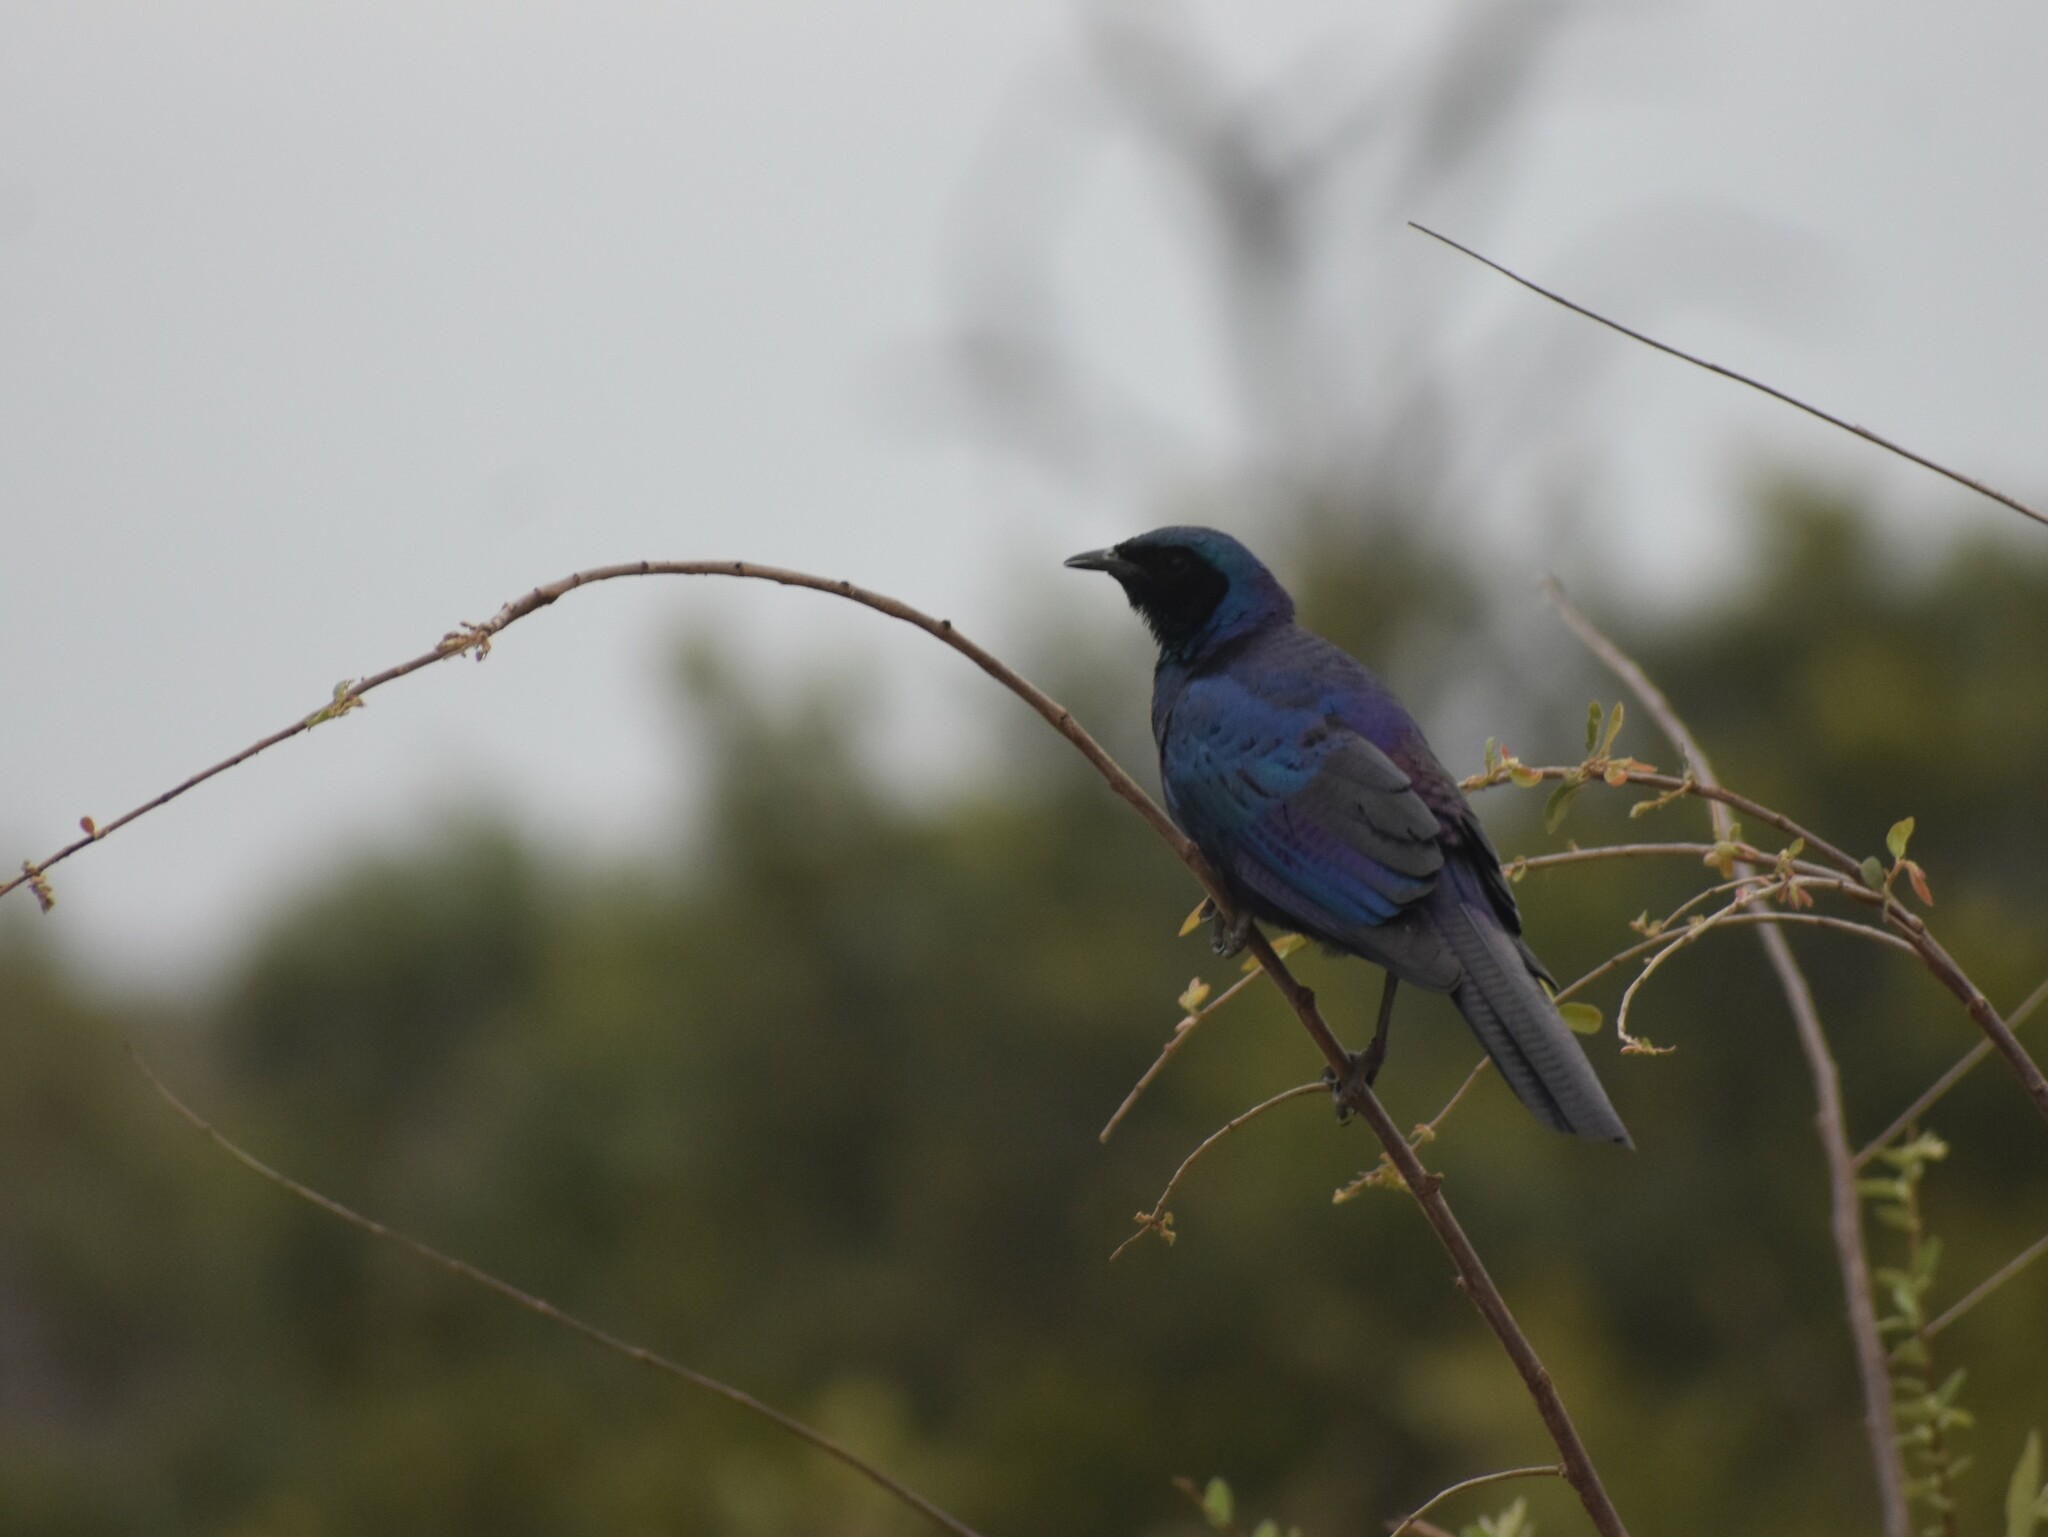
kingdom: Animalia
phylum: Chordata
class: Aves
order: Passeriformes
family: Sturnidae
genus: Lamprotornis
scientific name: Lamprotornis australis
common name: Burchell's starling
